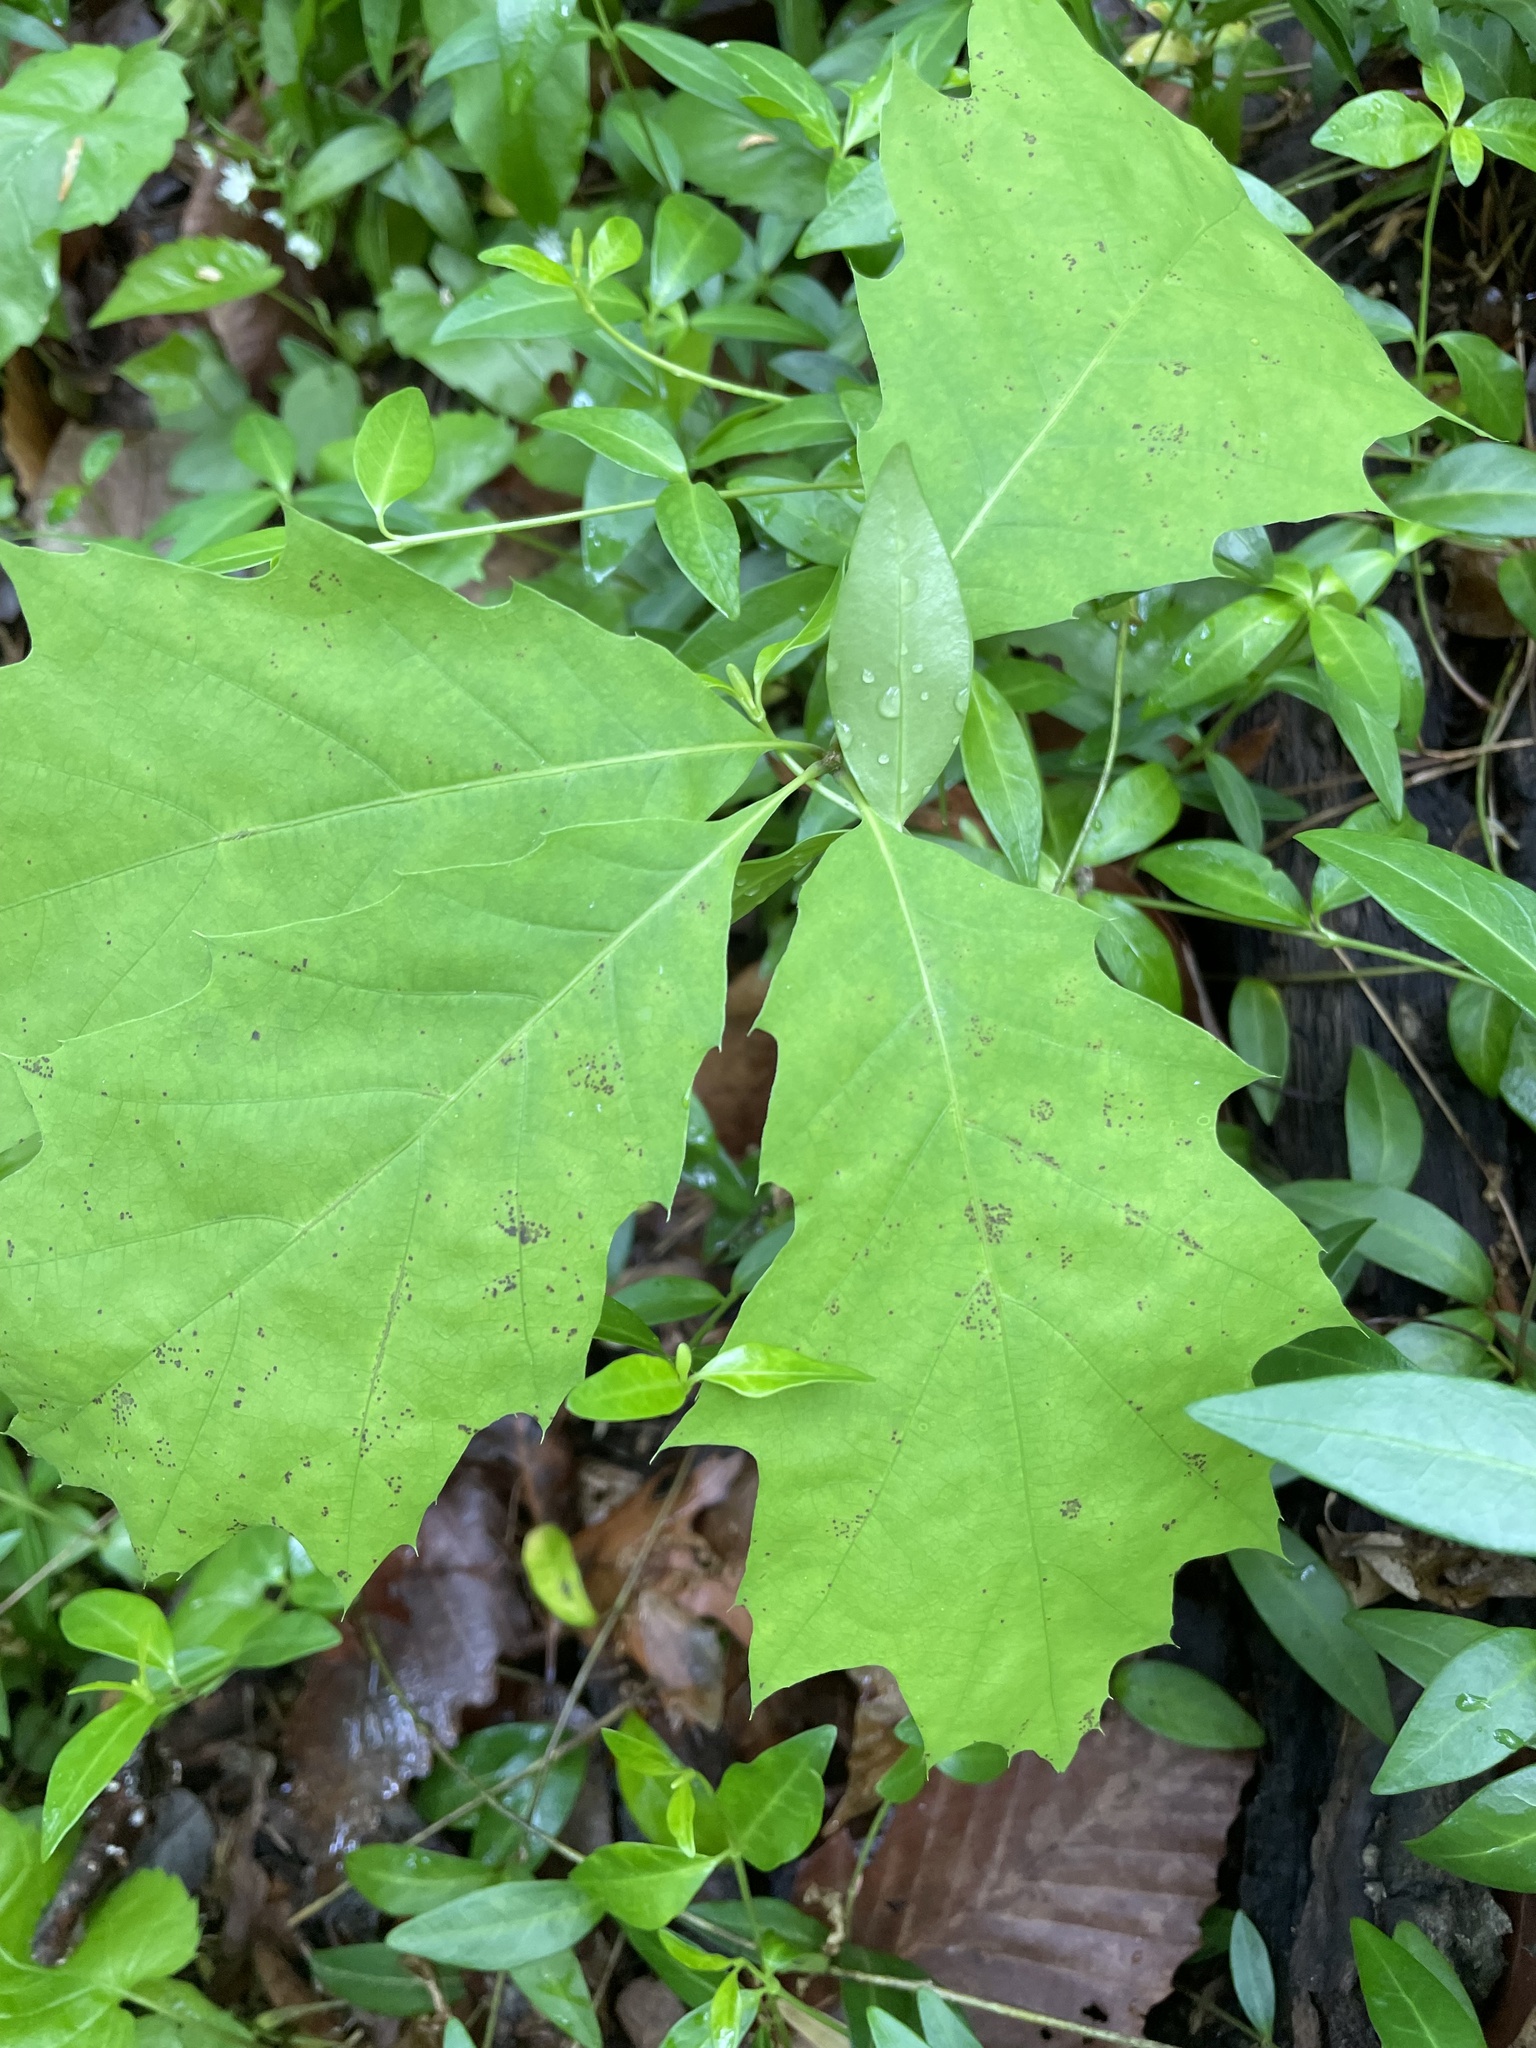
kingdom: Plantae
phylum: Tracheophyta
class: Magnoliopsida
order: Fagales
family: Fagaceae
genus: Quercus
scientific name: Quercus rubra
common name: Red oak
